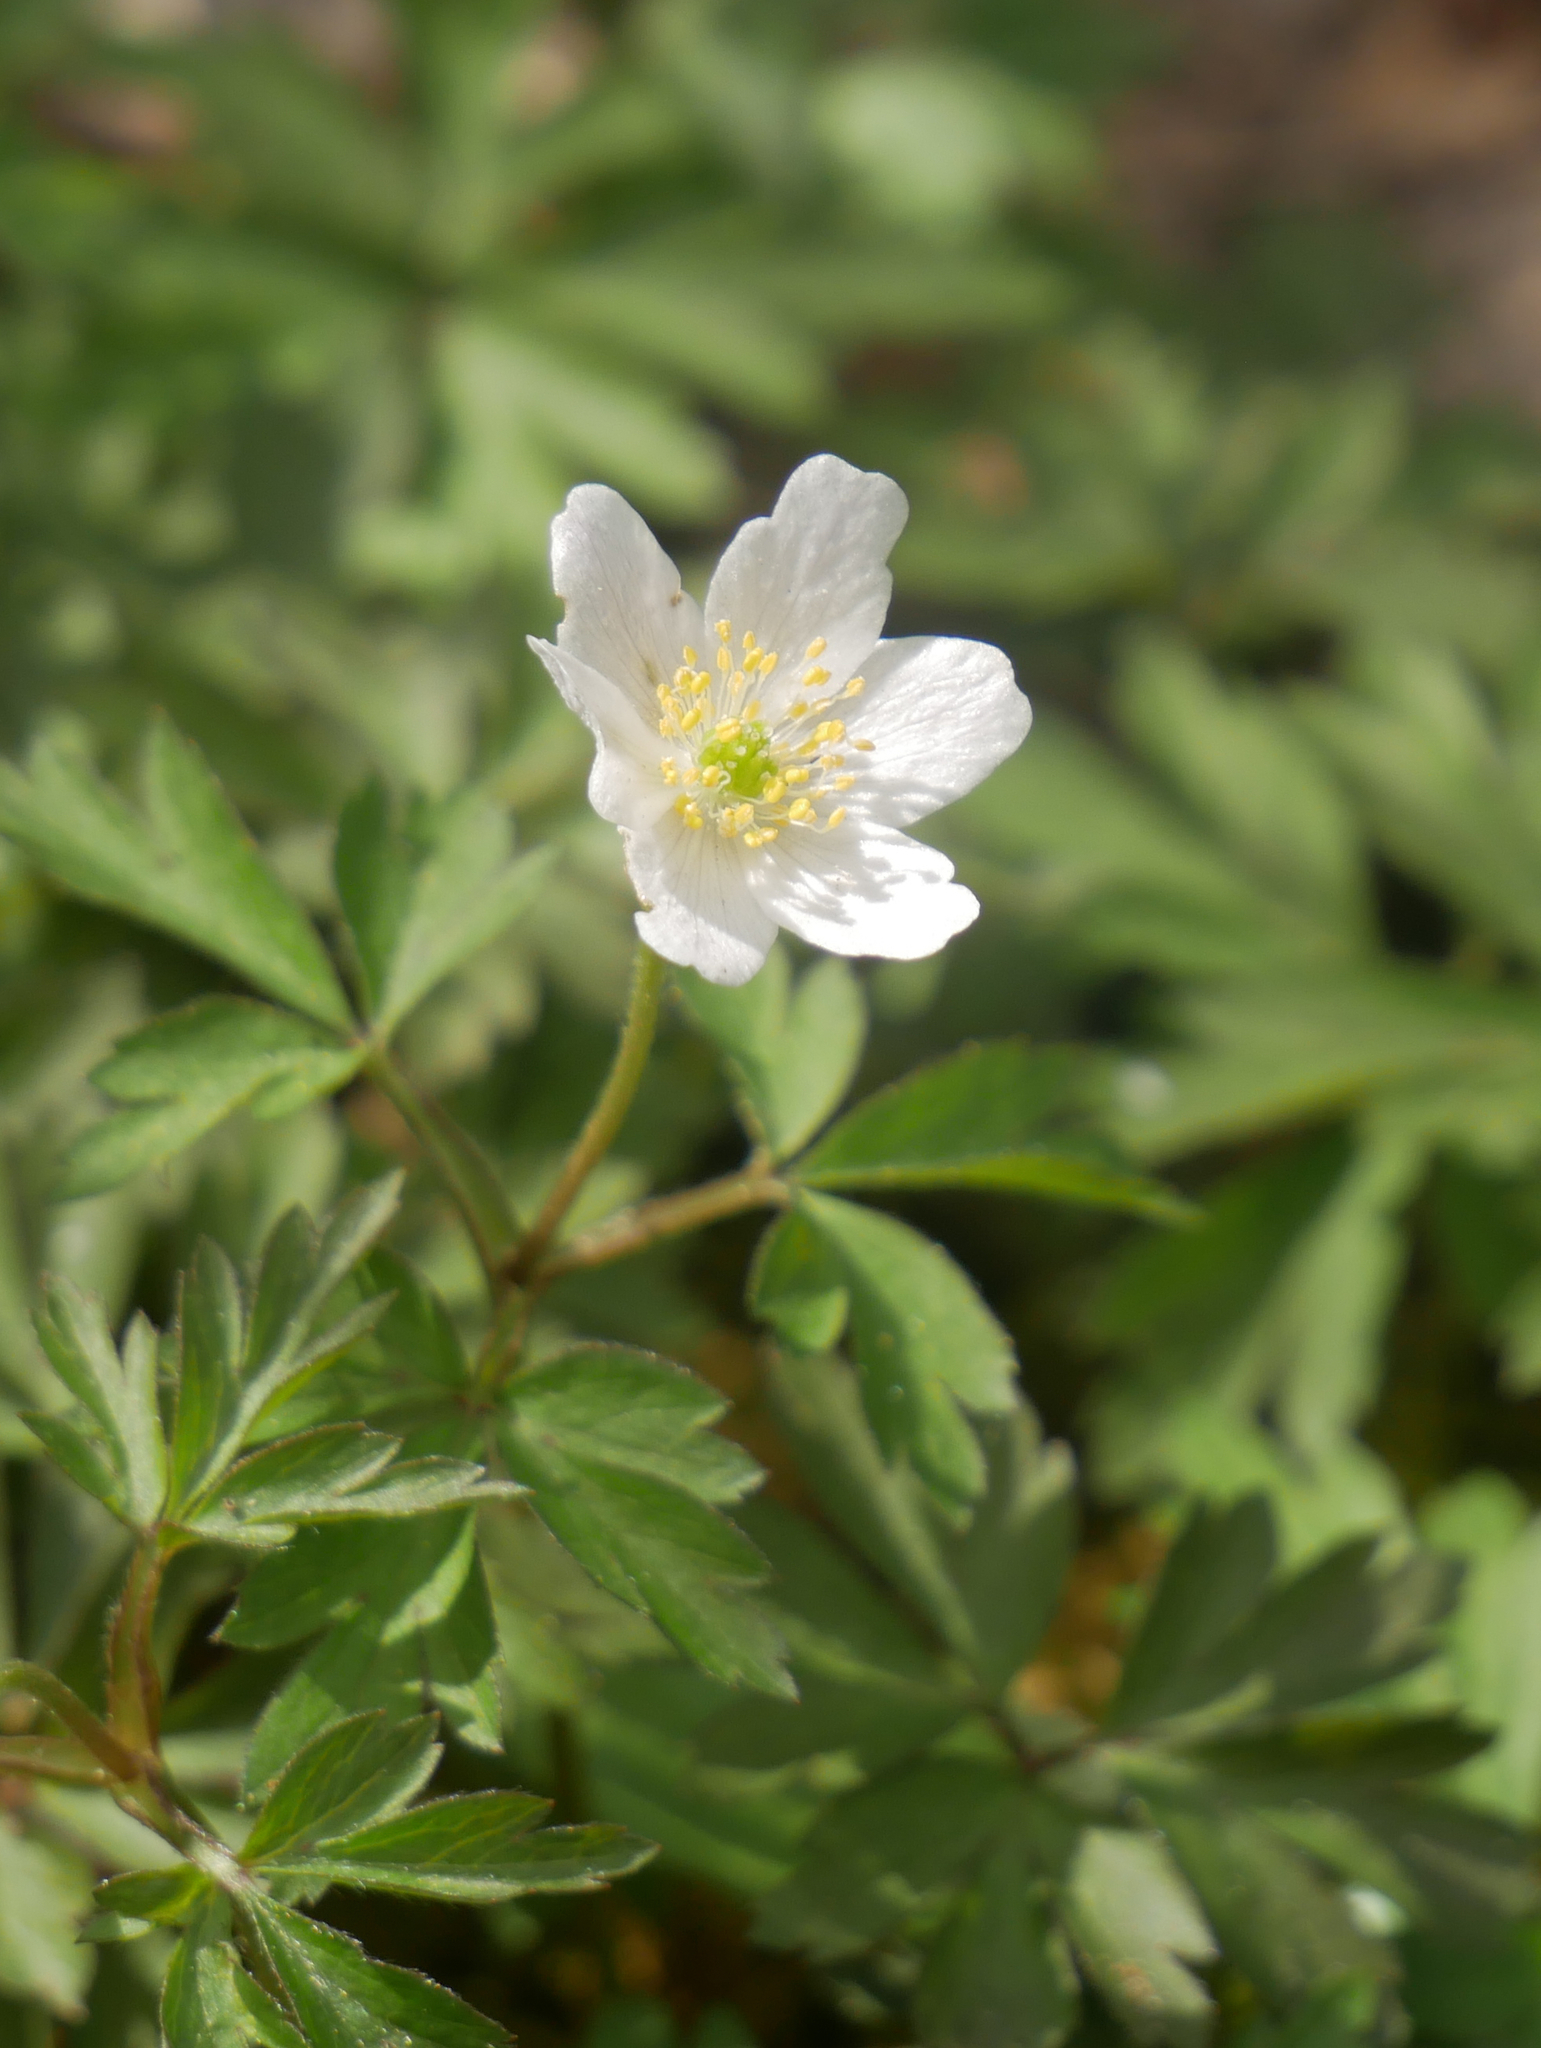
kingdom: Plantae
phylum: Tracheophyta
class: Magnoliopsida
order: Ranunculales
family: Ranunculaceae
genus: Anemone
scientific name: Anemone nemorosa
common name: Wood anemone
